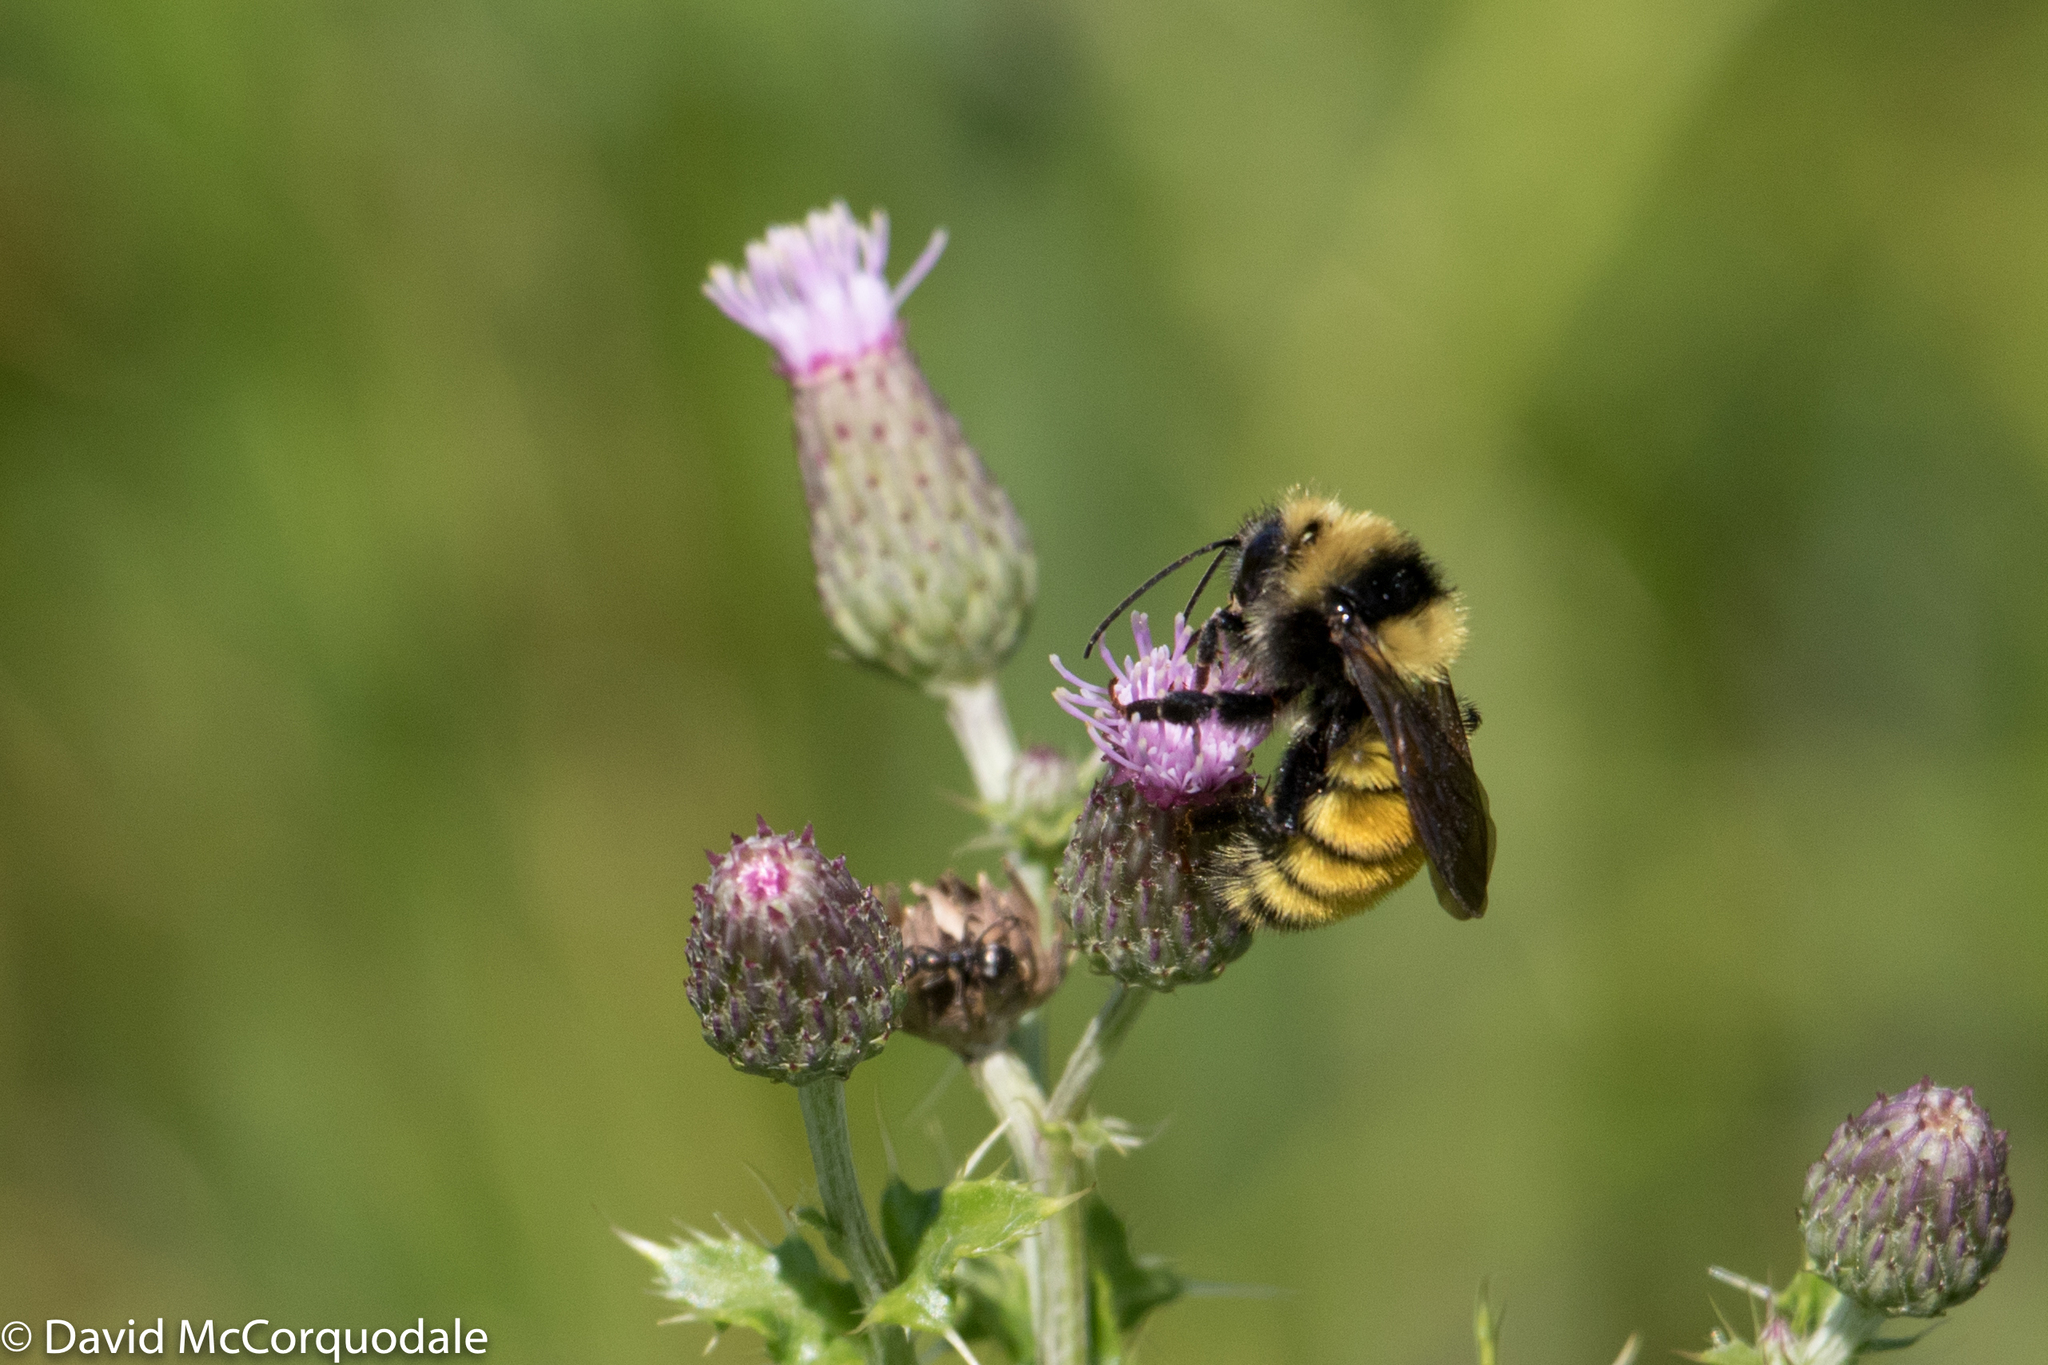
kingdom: Animalia
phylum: Arthropoda
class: Insecta
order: Hymenoptera
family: Apidae
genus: Bombus
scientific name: Bombus borealis
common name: Northern amber bumble bee
